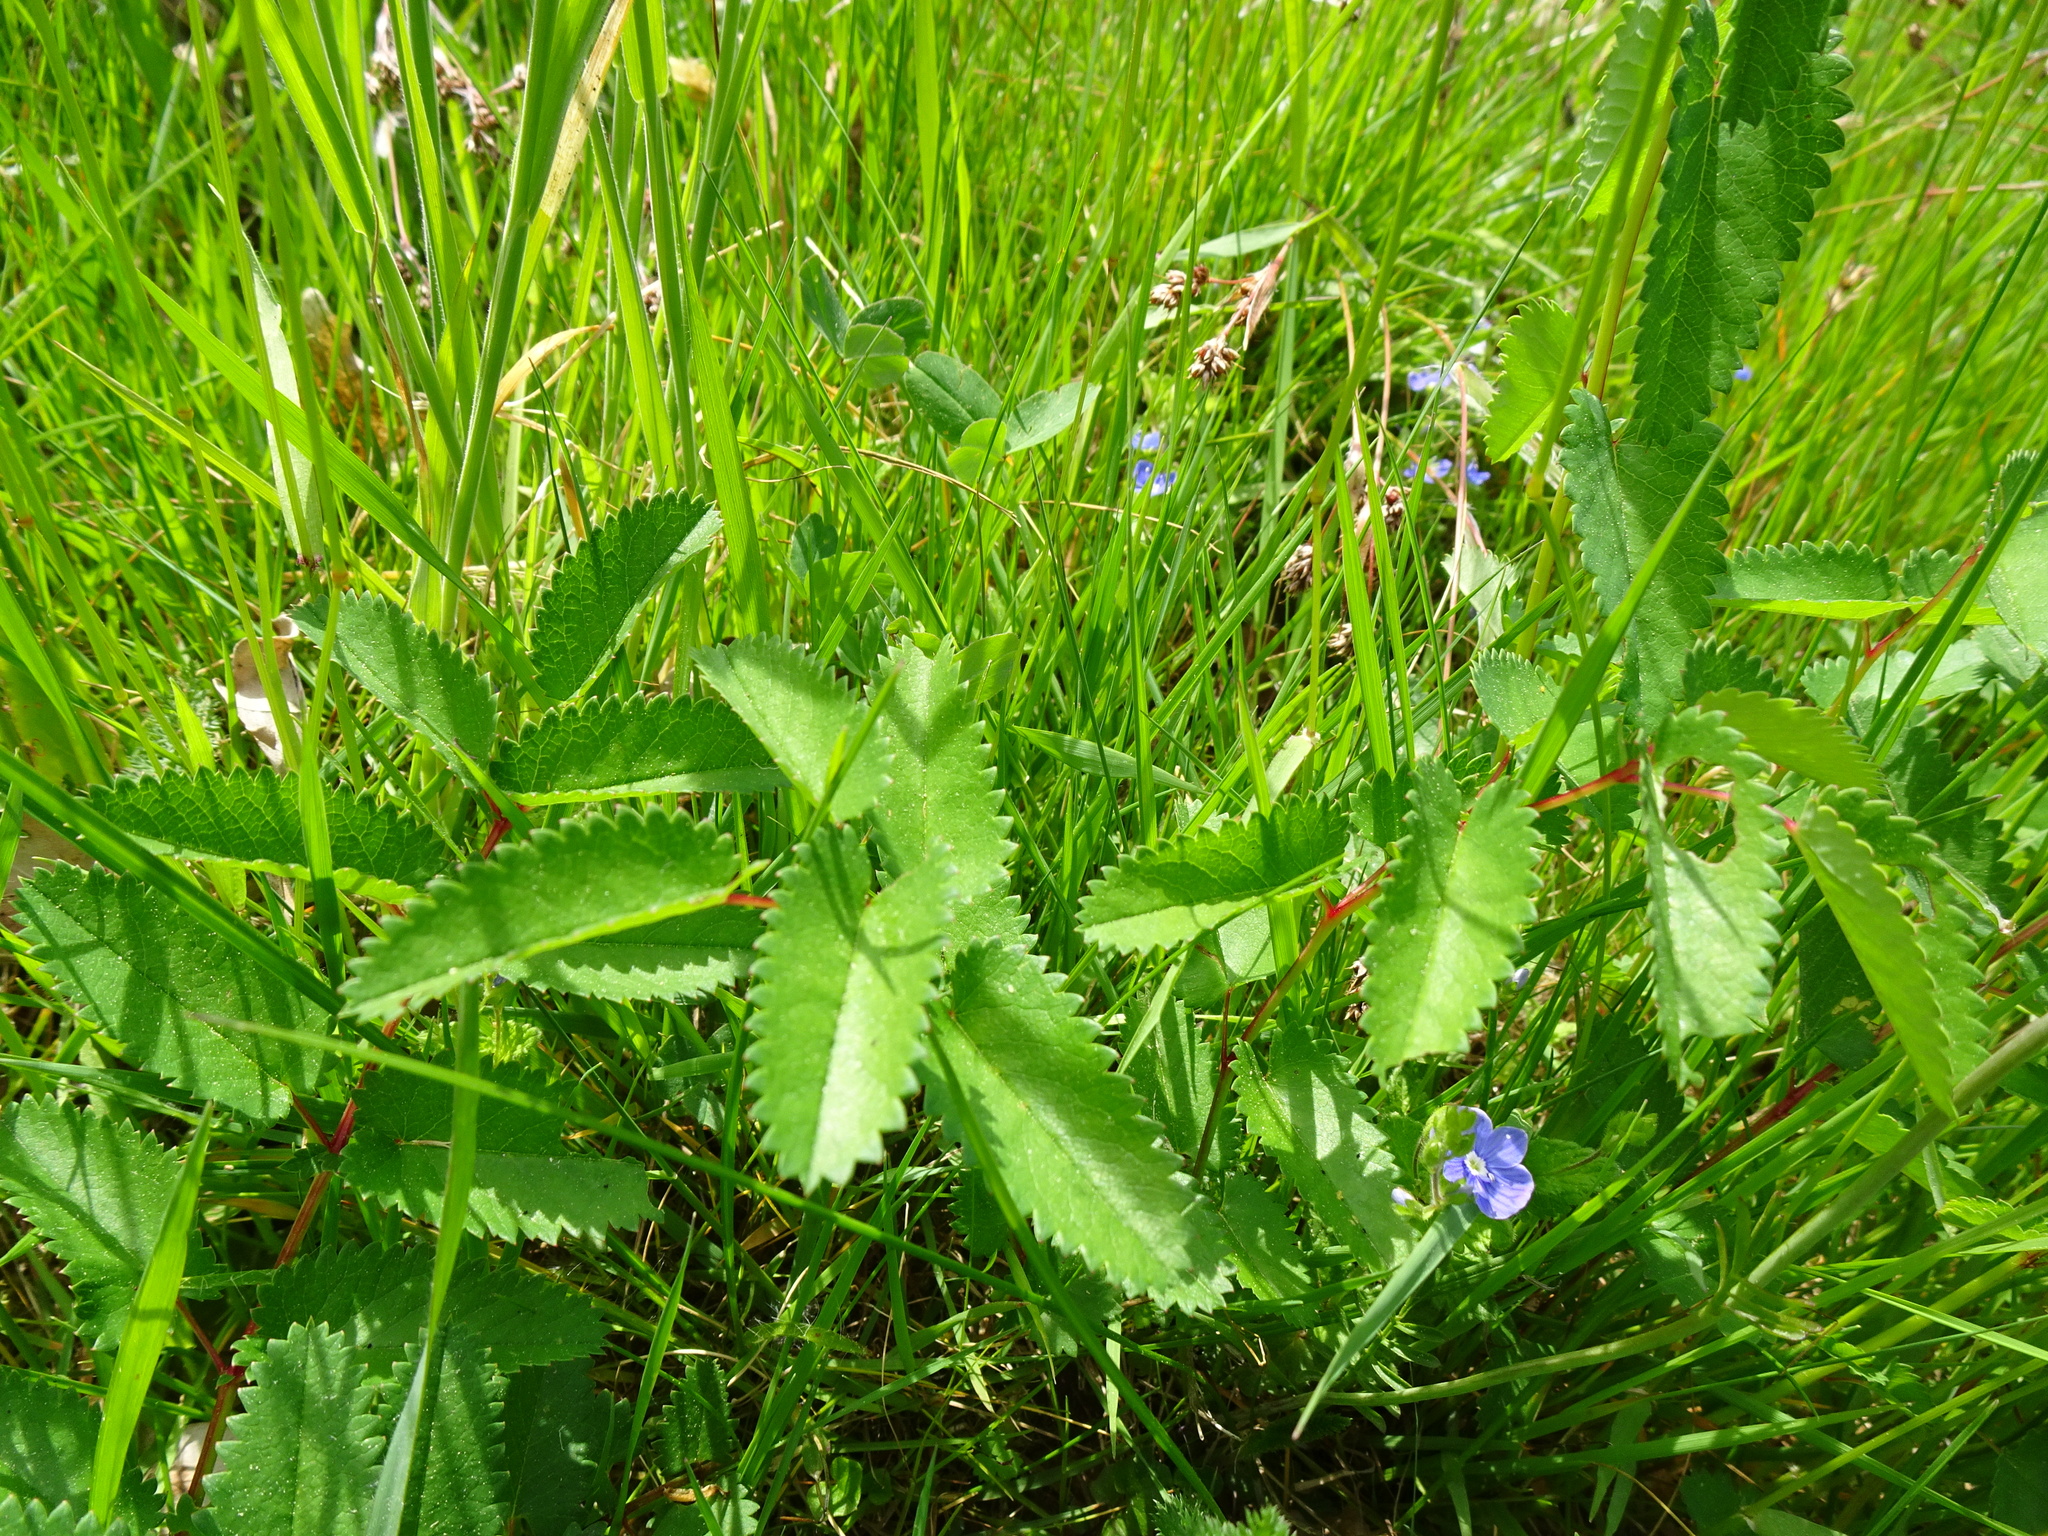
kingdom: Plantae
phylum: Tracheophyta
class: Magnoliopsida
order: Rosales
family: Rosaceae
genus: Sanguisorba
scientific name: Sanguisorba officinalis
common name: Great burnet
